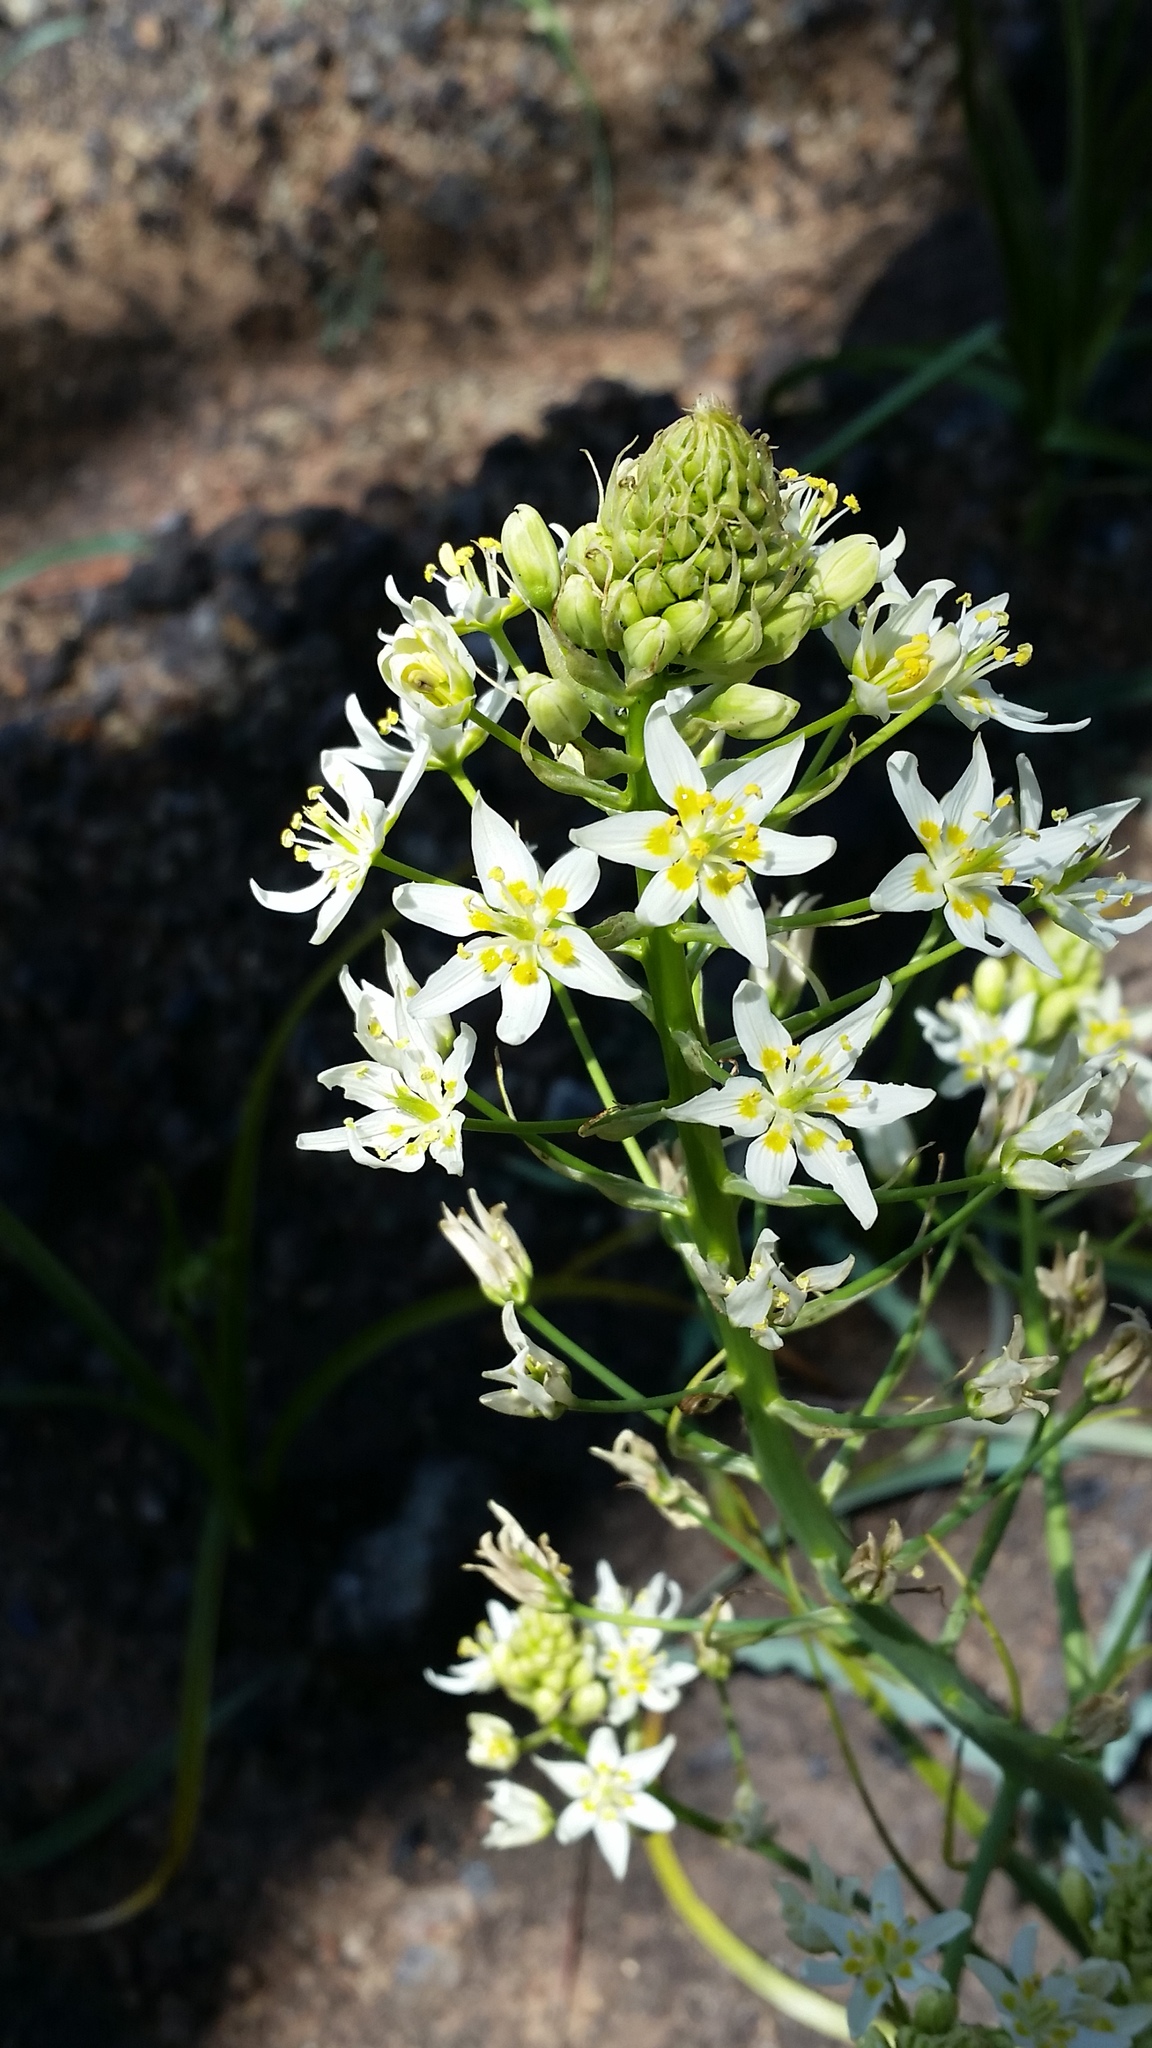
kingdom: Plantae
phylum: Tracheophyta
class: Liliopsida
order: Liliales
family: Melanthiaceae
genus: Toxicoscordion
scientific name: Toxicoscordion fremontii
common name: Fremont's death camas
